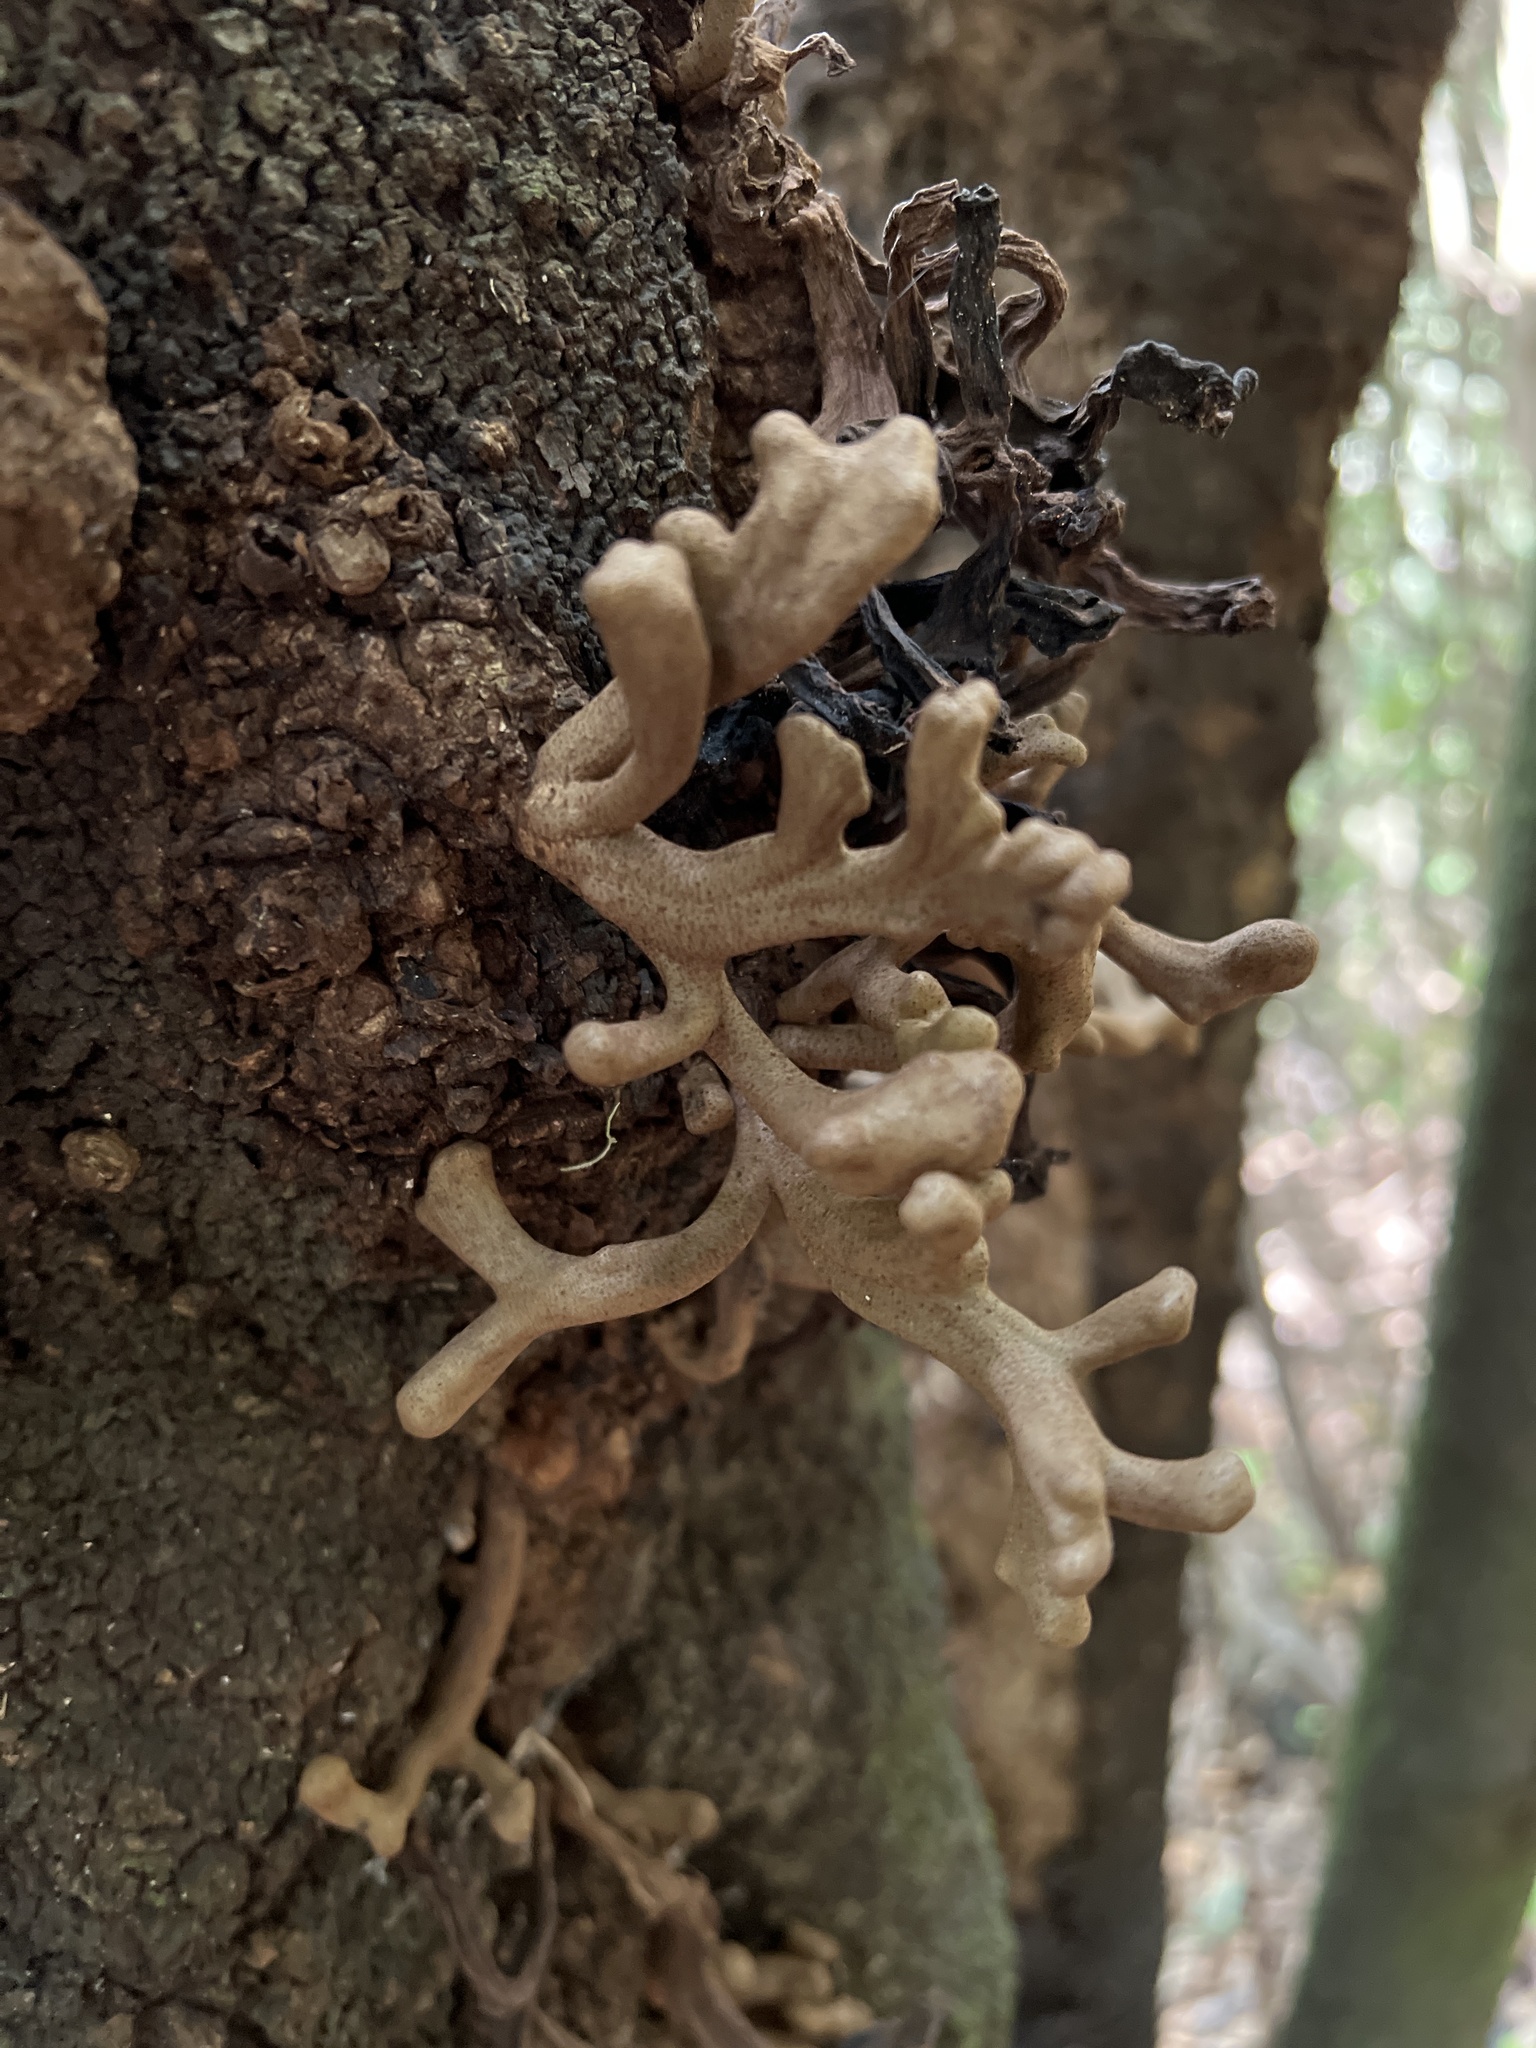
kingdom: Fungi
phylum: Basidiomycota
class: Exobasidiomycetes
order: Exobasidiales
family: Laurobasidiaceae
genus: Laurobasidium
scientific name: Laurobasidium lauri
